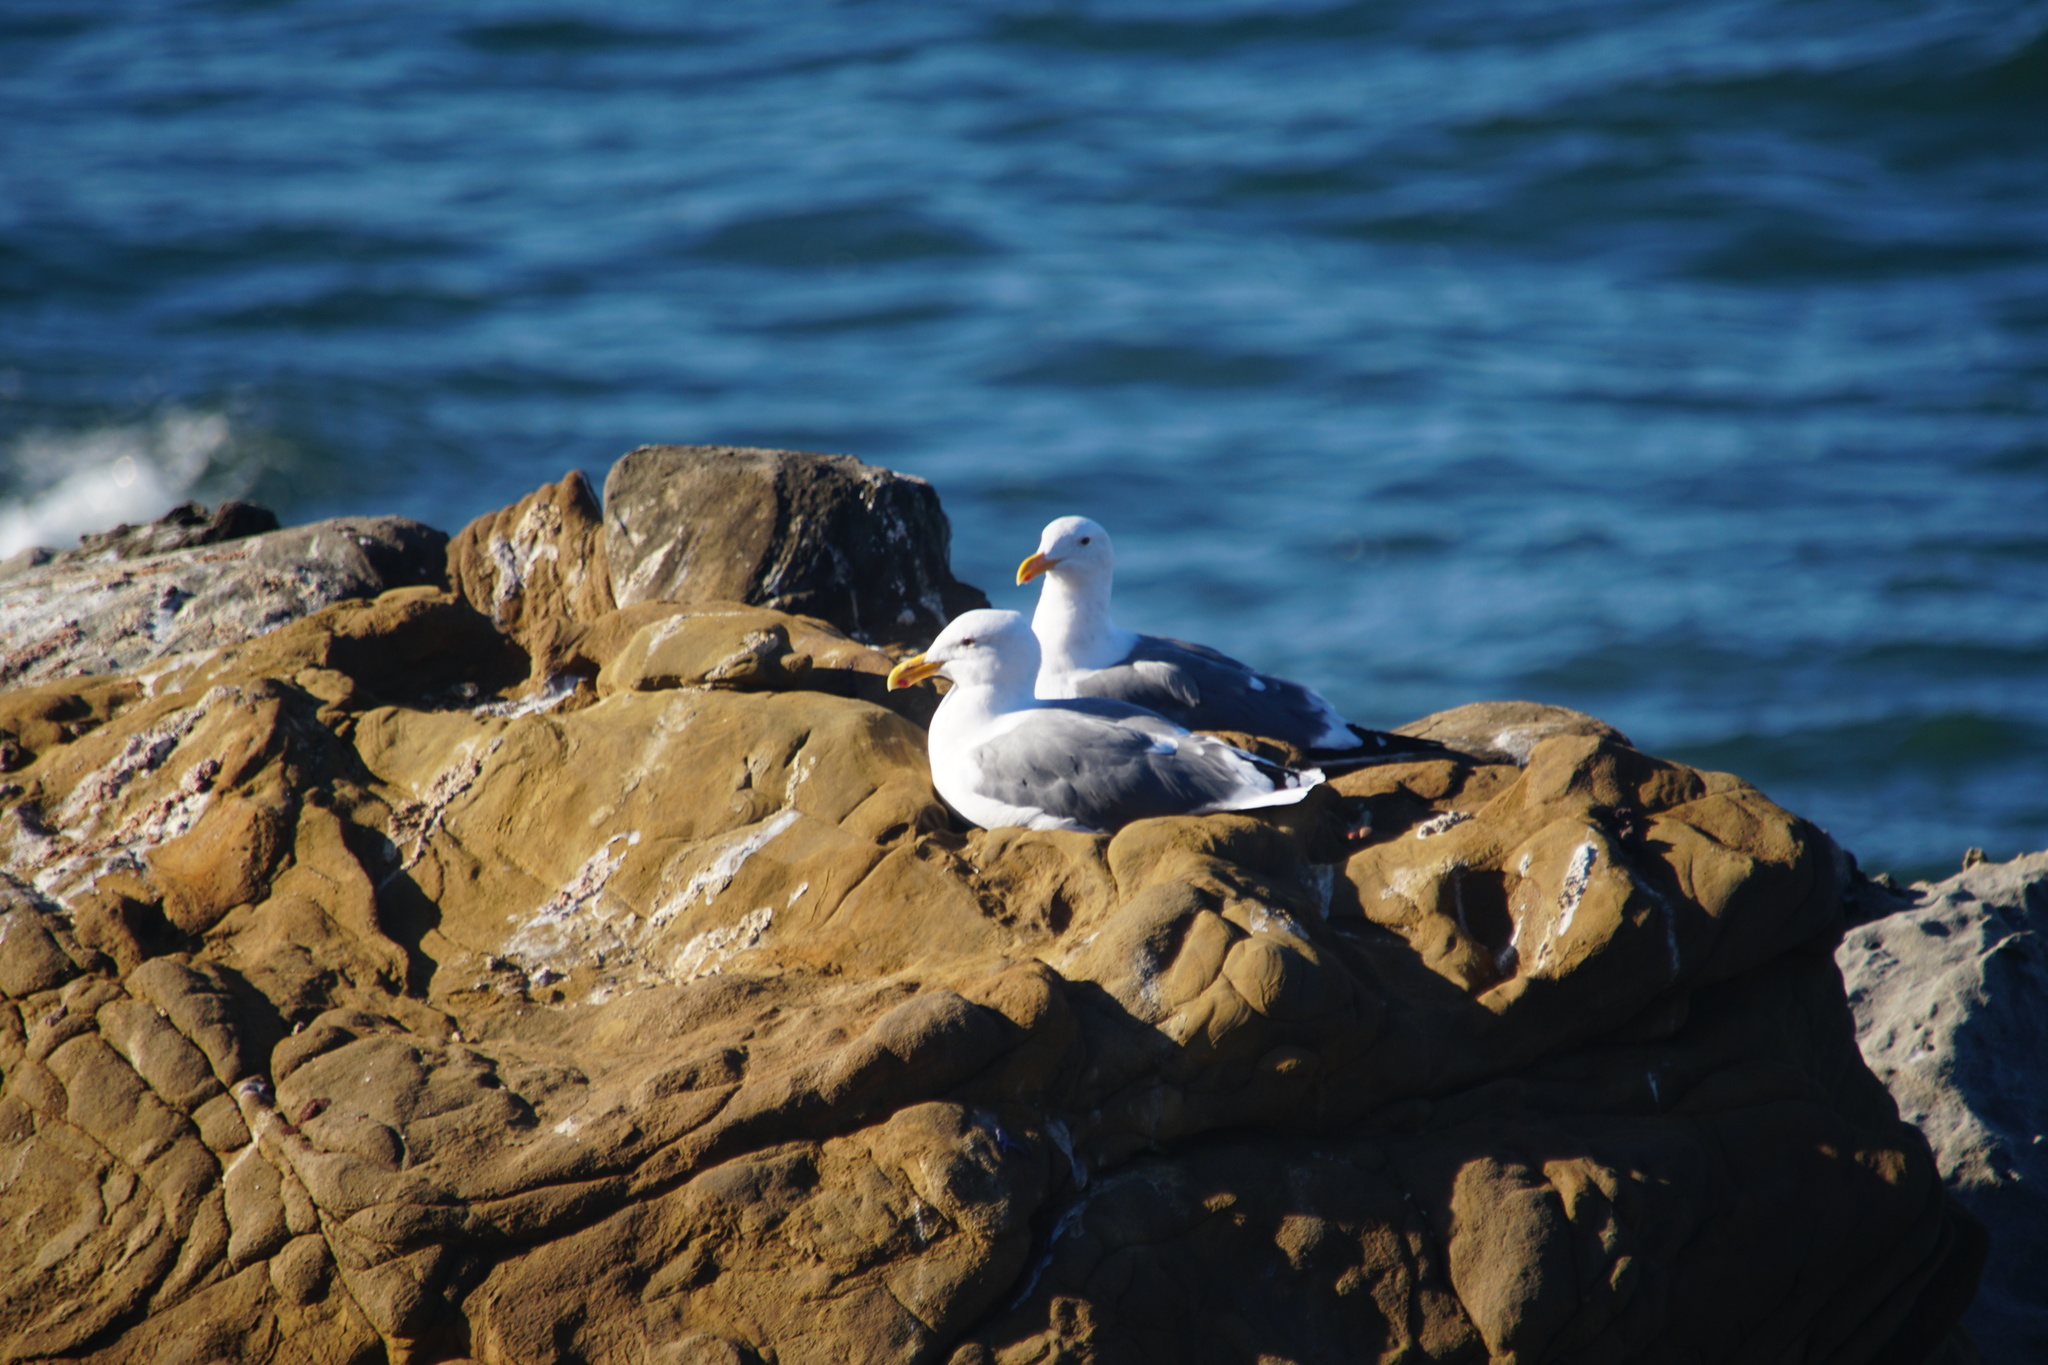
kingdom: Animalia
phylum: Chordata
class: Aves
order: Charadriiformes
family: Laridae
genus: Larus
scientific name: Larus occidentalis
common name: Western gull
